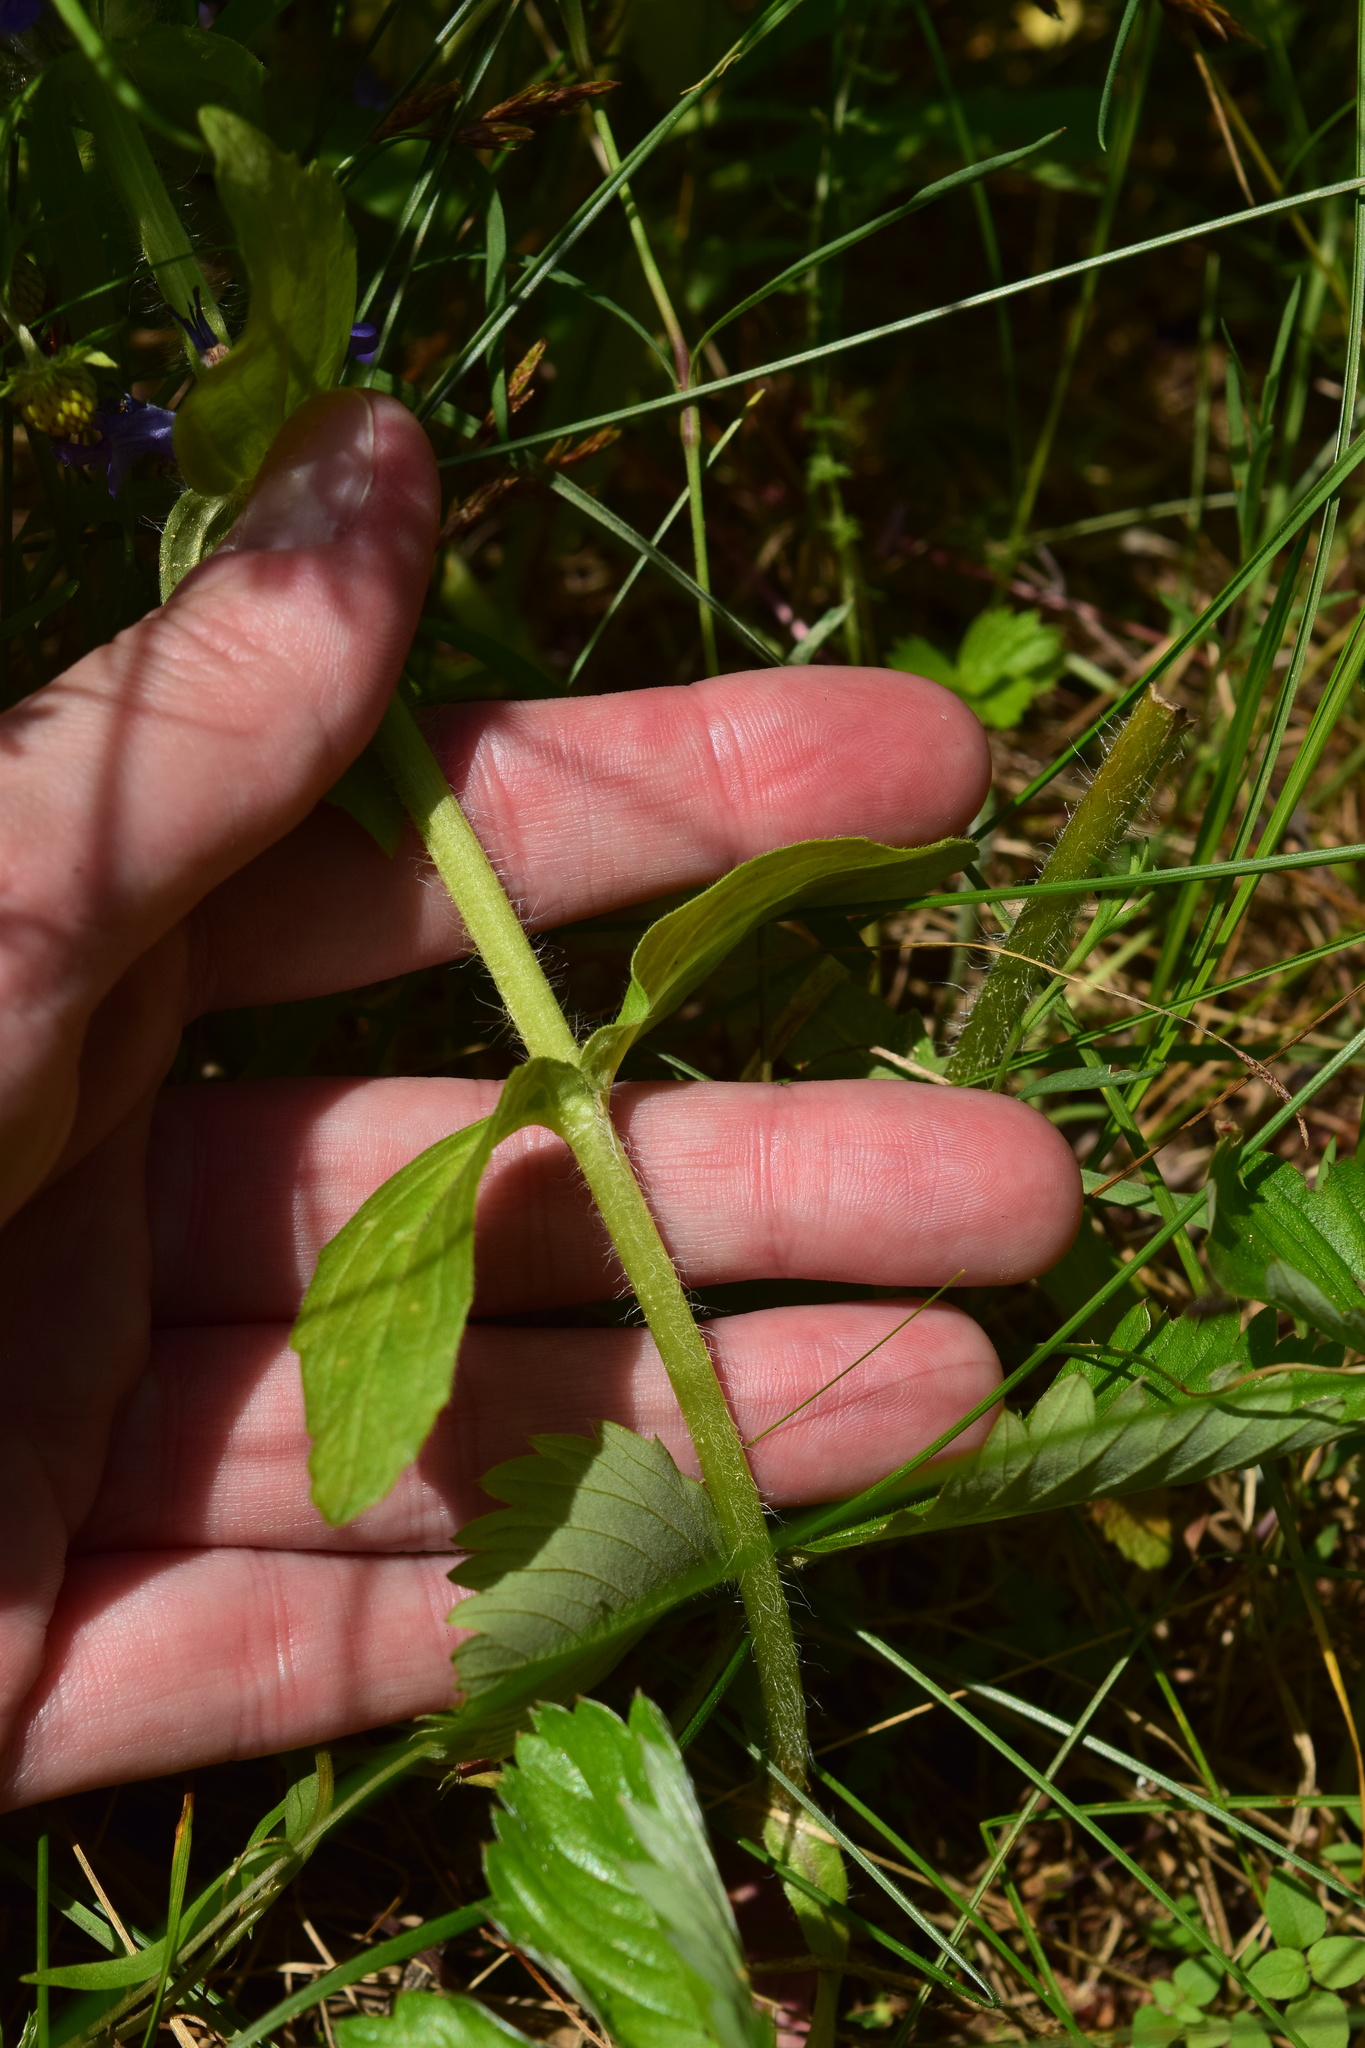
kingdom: Plantae
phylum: Tracheophyta
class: Magnoliopsida
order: Lamiales
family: Lamiaceae
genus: Ajuga
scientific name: Ajuga genevensis
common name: Blue bugle
